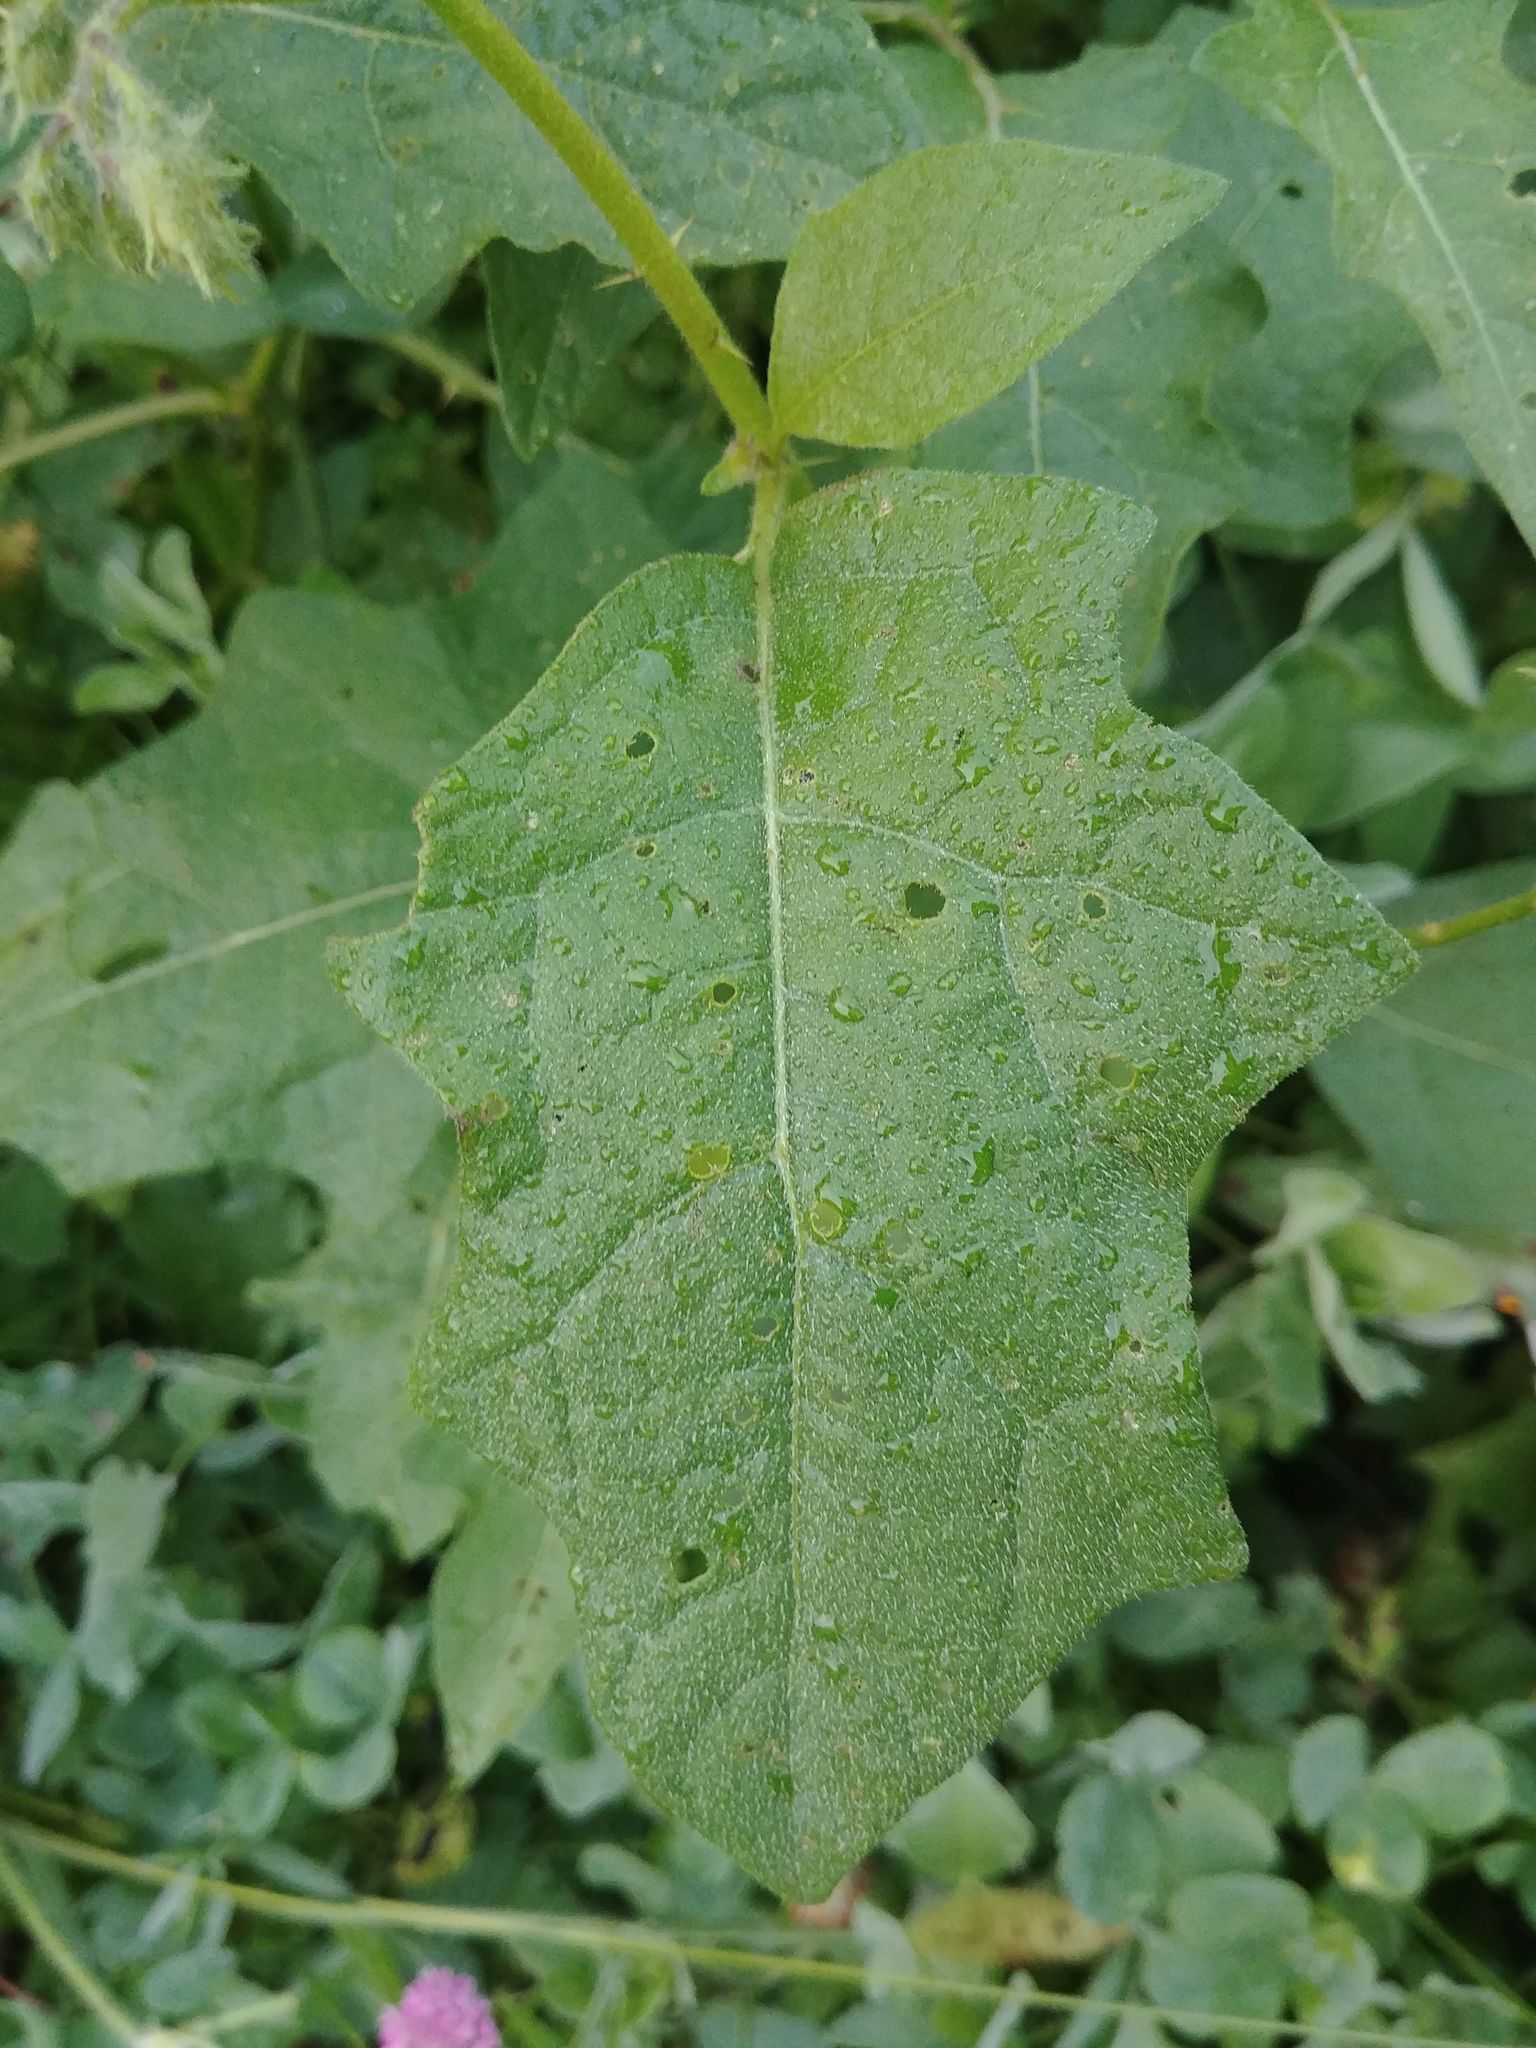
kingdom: Plantae
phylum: Tracheophyta
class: Magnoliopsida
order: Solanales
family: Solanaceae
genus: Solanum
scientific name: Solanum carolinense
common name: Horse-nettle
